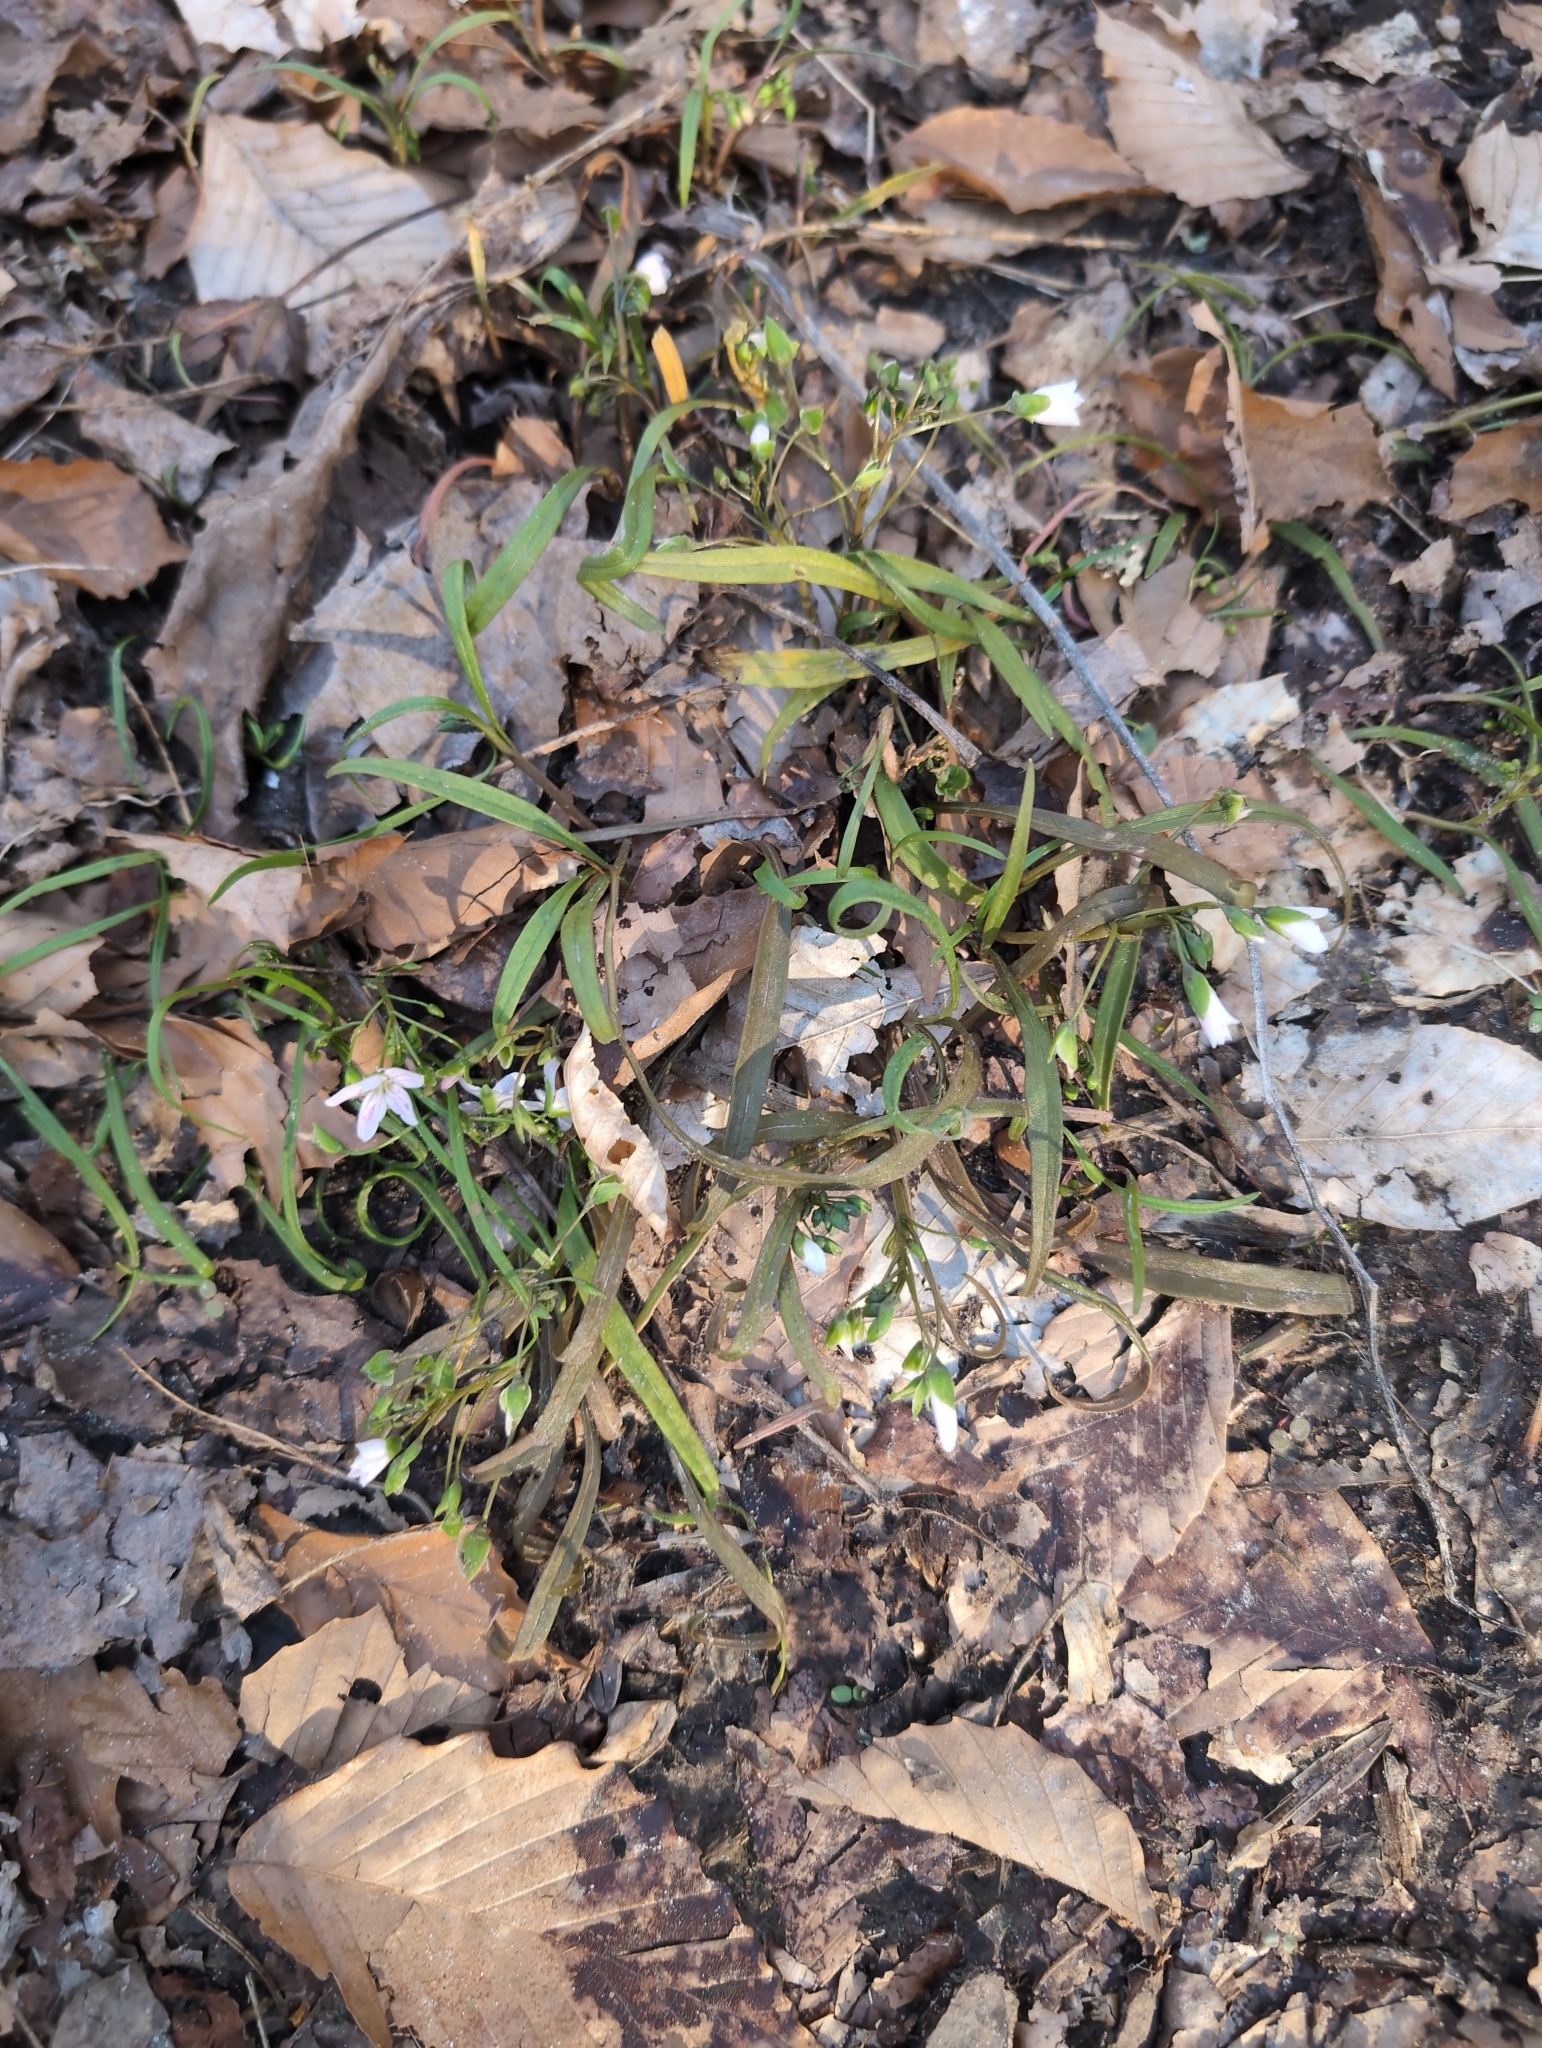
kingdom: Plantae
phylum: Tracheophyta
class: Magnoliopsida
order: Caryophyllales
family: Montiaceae
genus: Claytonia
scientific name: Claytonia virginica
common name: Virginia springbeauty
